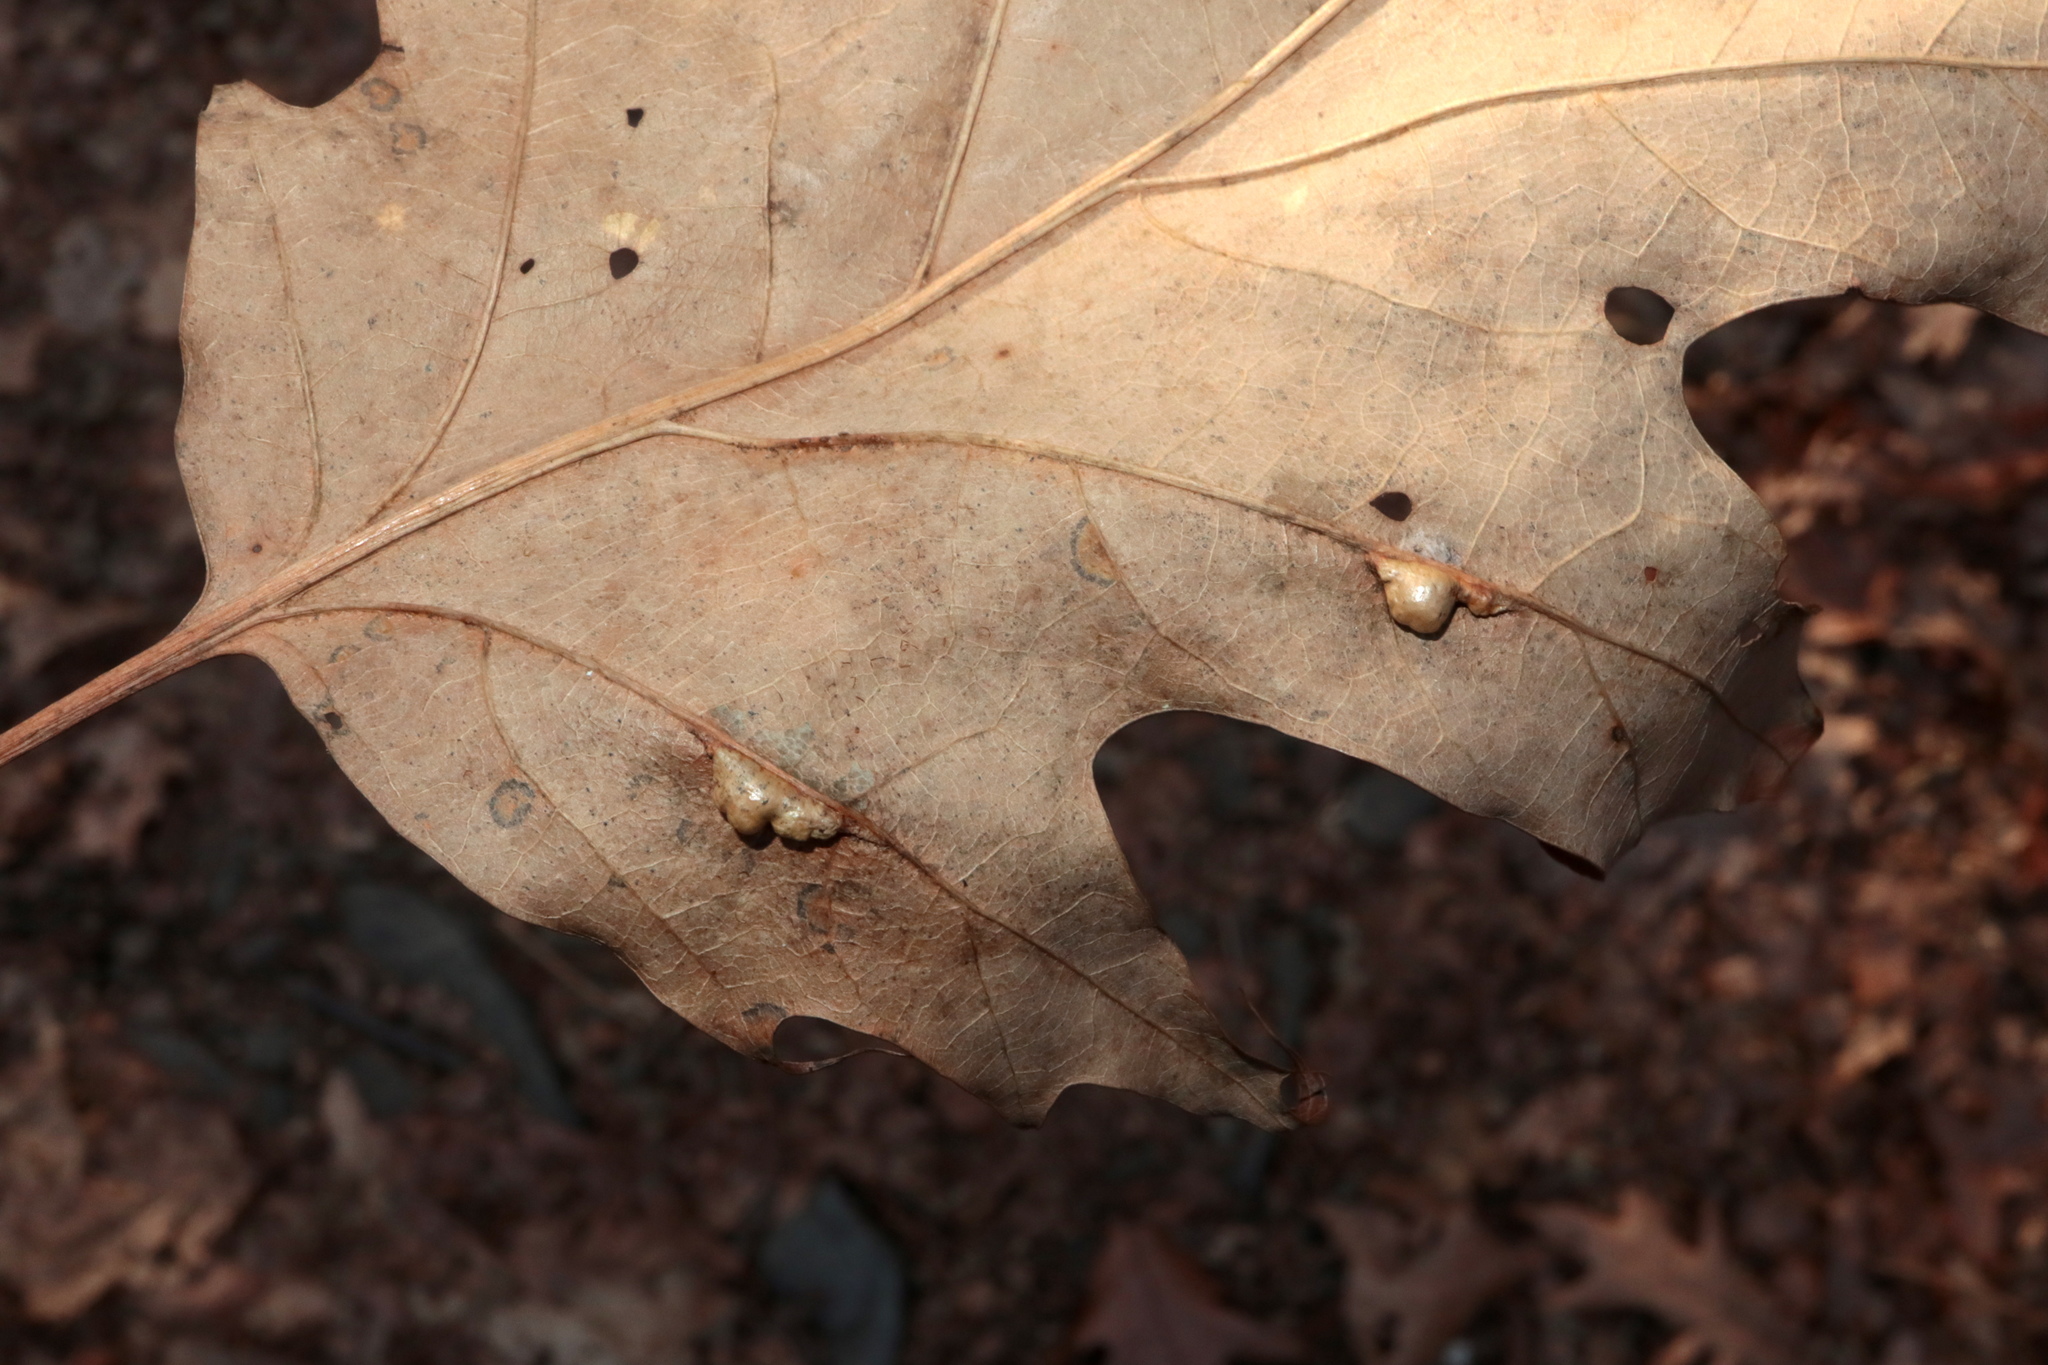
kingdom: Animalia
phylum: Arthropoda
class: Insecta
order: Diptera
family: Cecidomyiidae
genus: Macrodiplosis
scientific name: Macrodiplosis majalis
